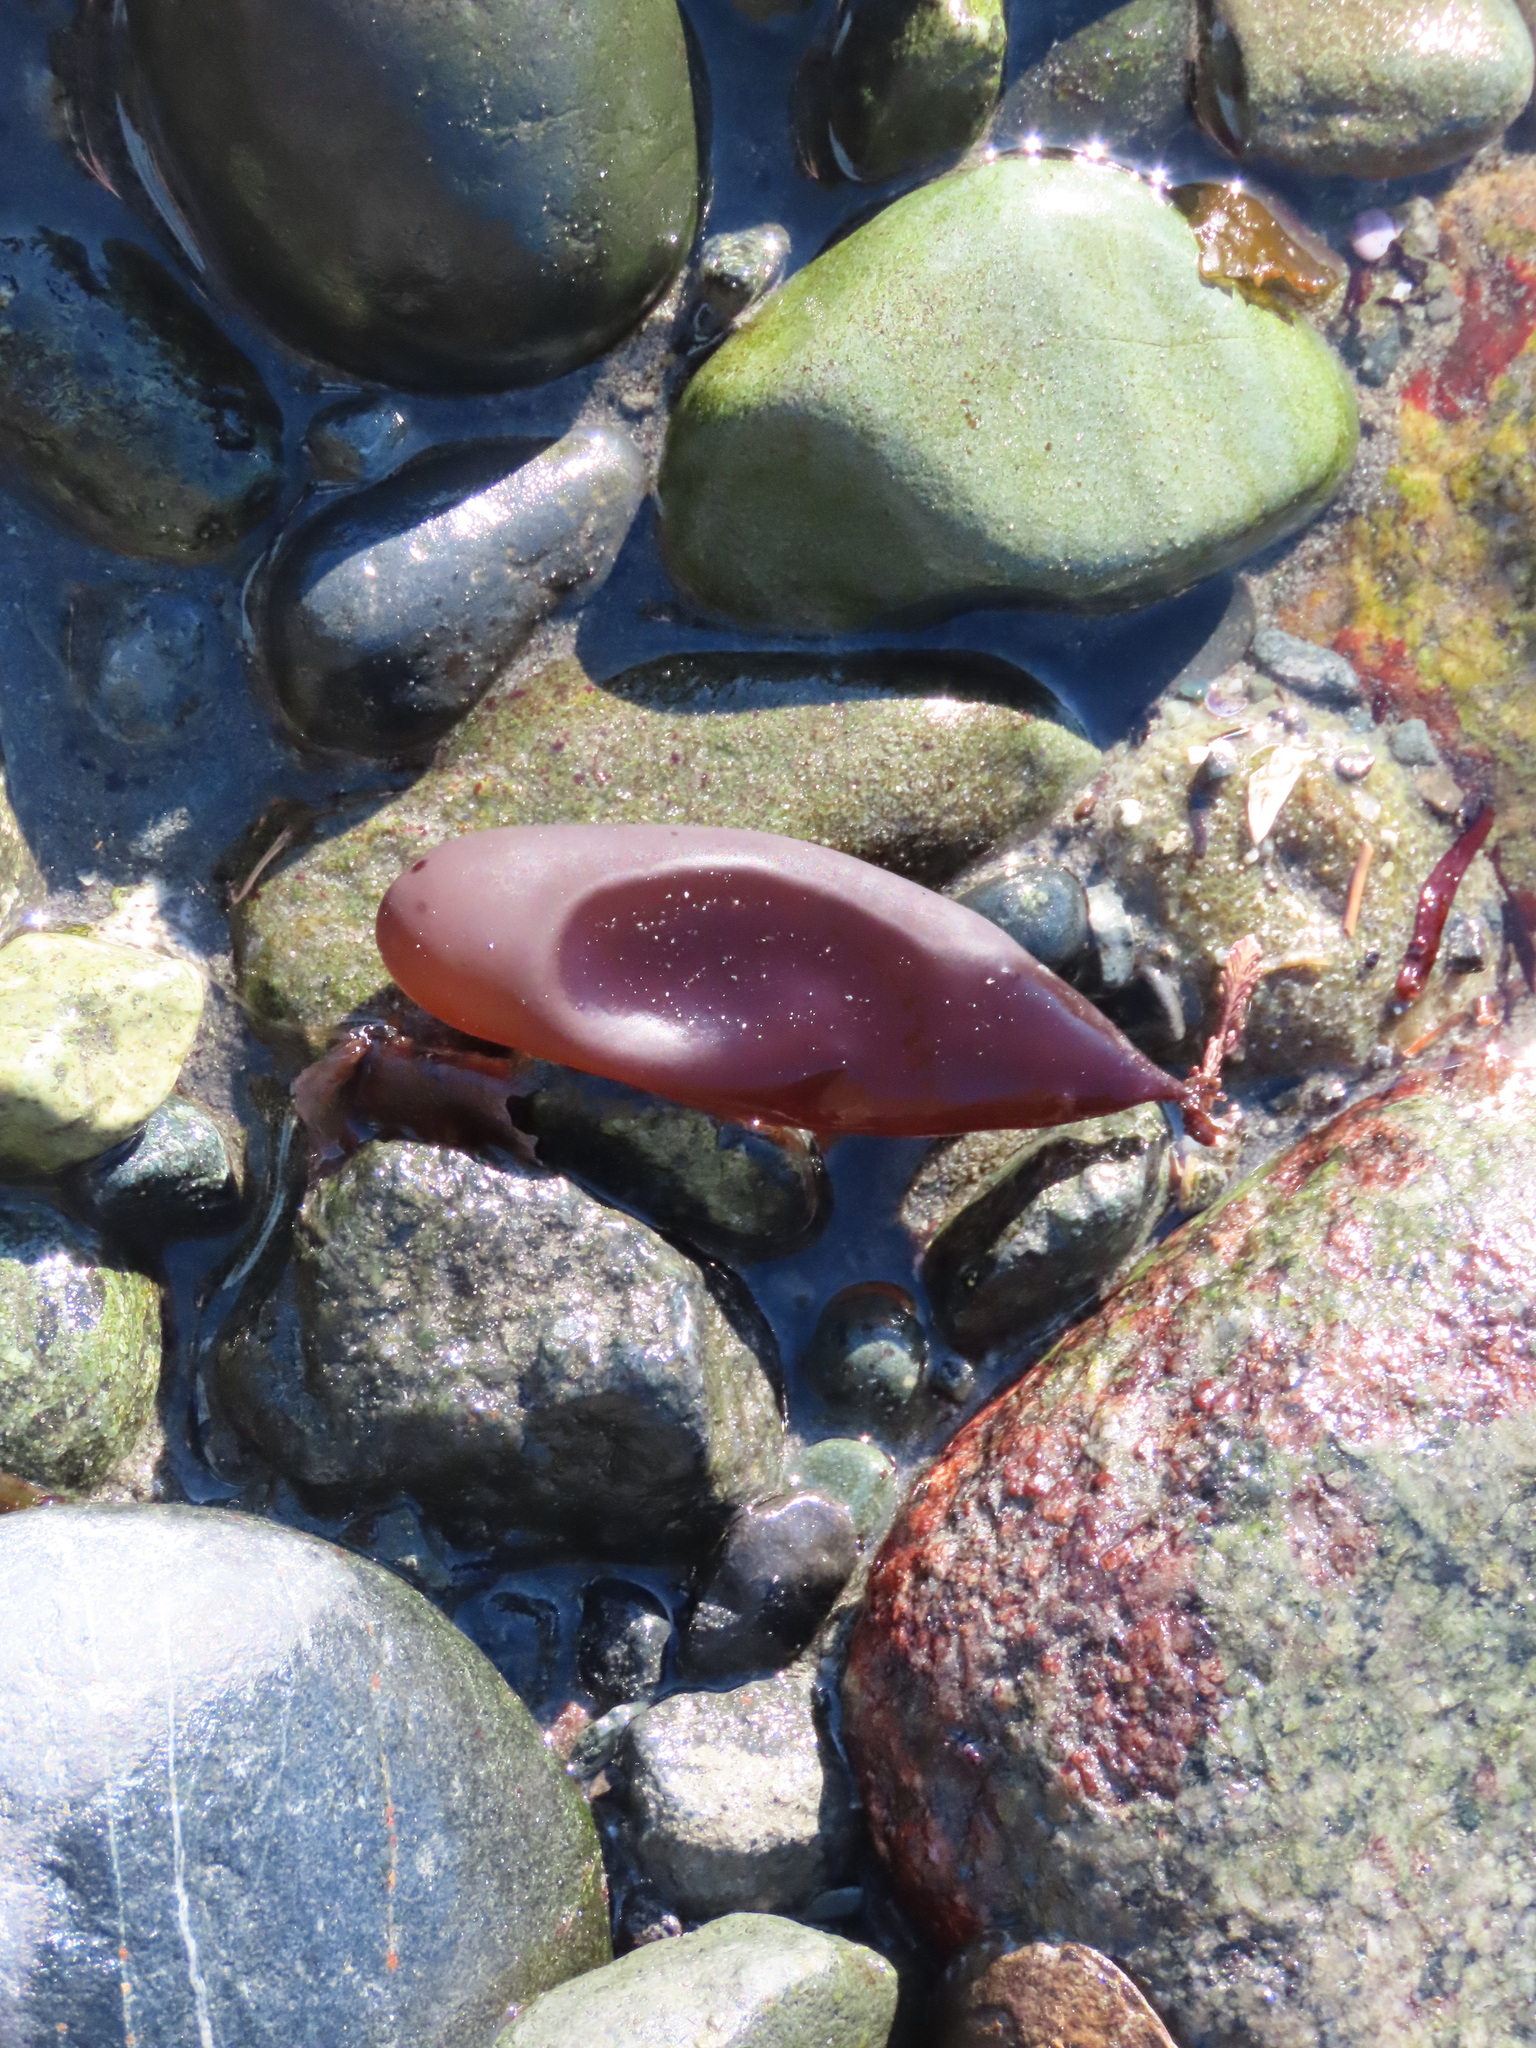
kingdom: Plantae
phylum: Rhodophyta
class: Florideophyceae
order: Palmariales
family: Palmariaceae
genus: Halosaccion
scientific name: Halosaccion glandiforme
